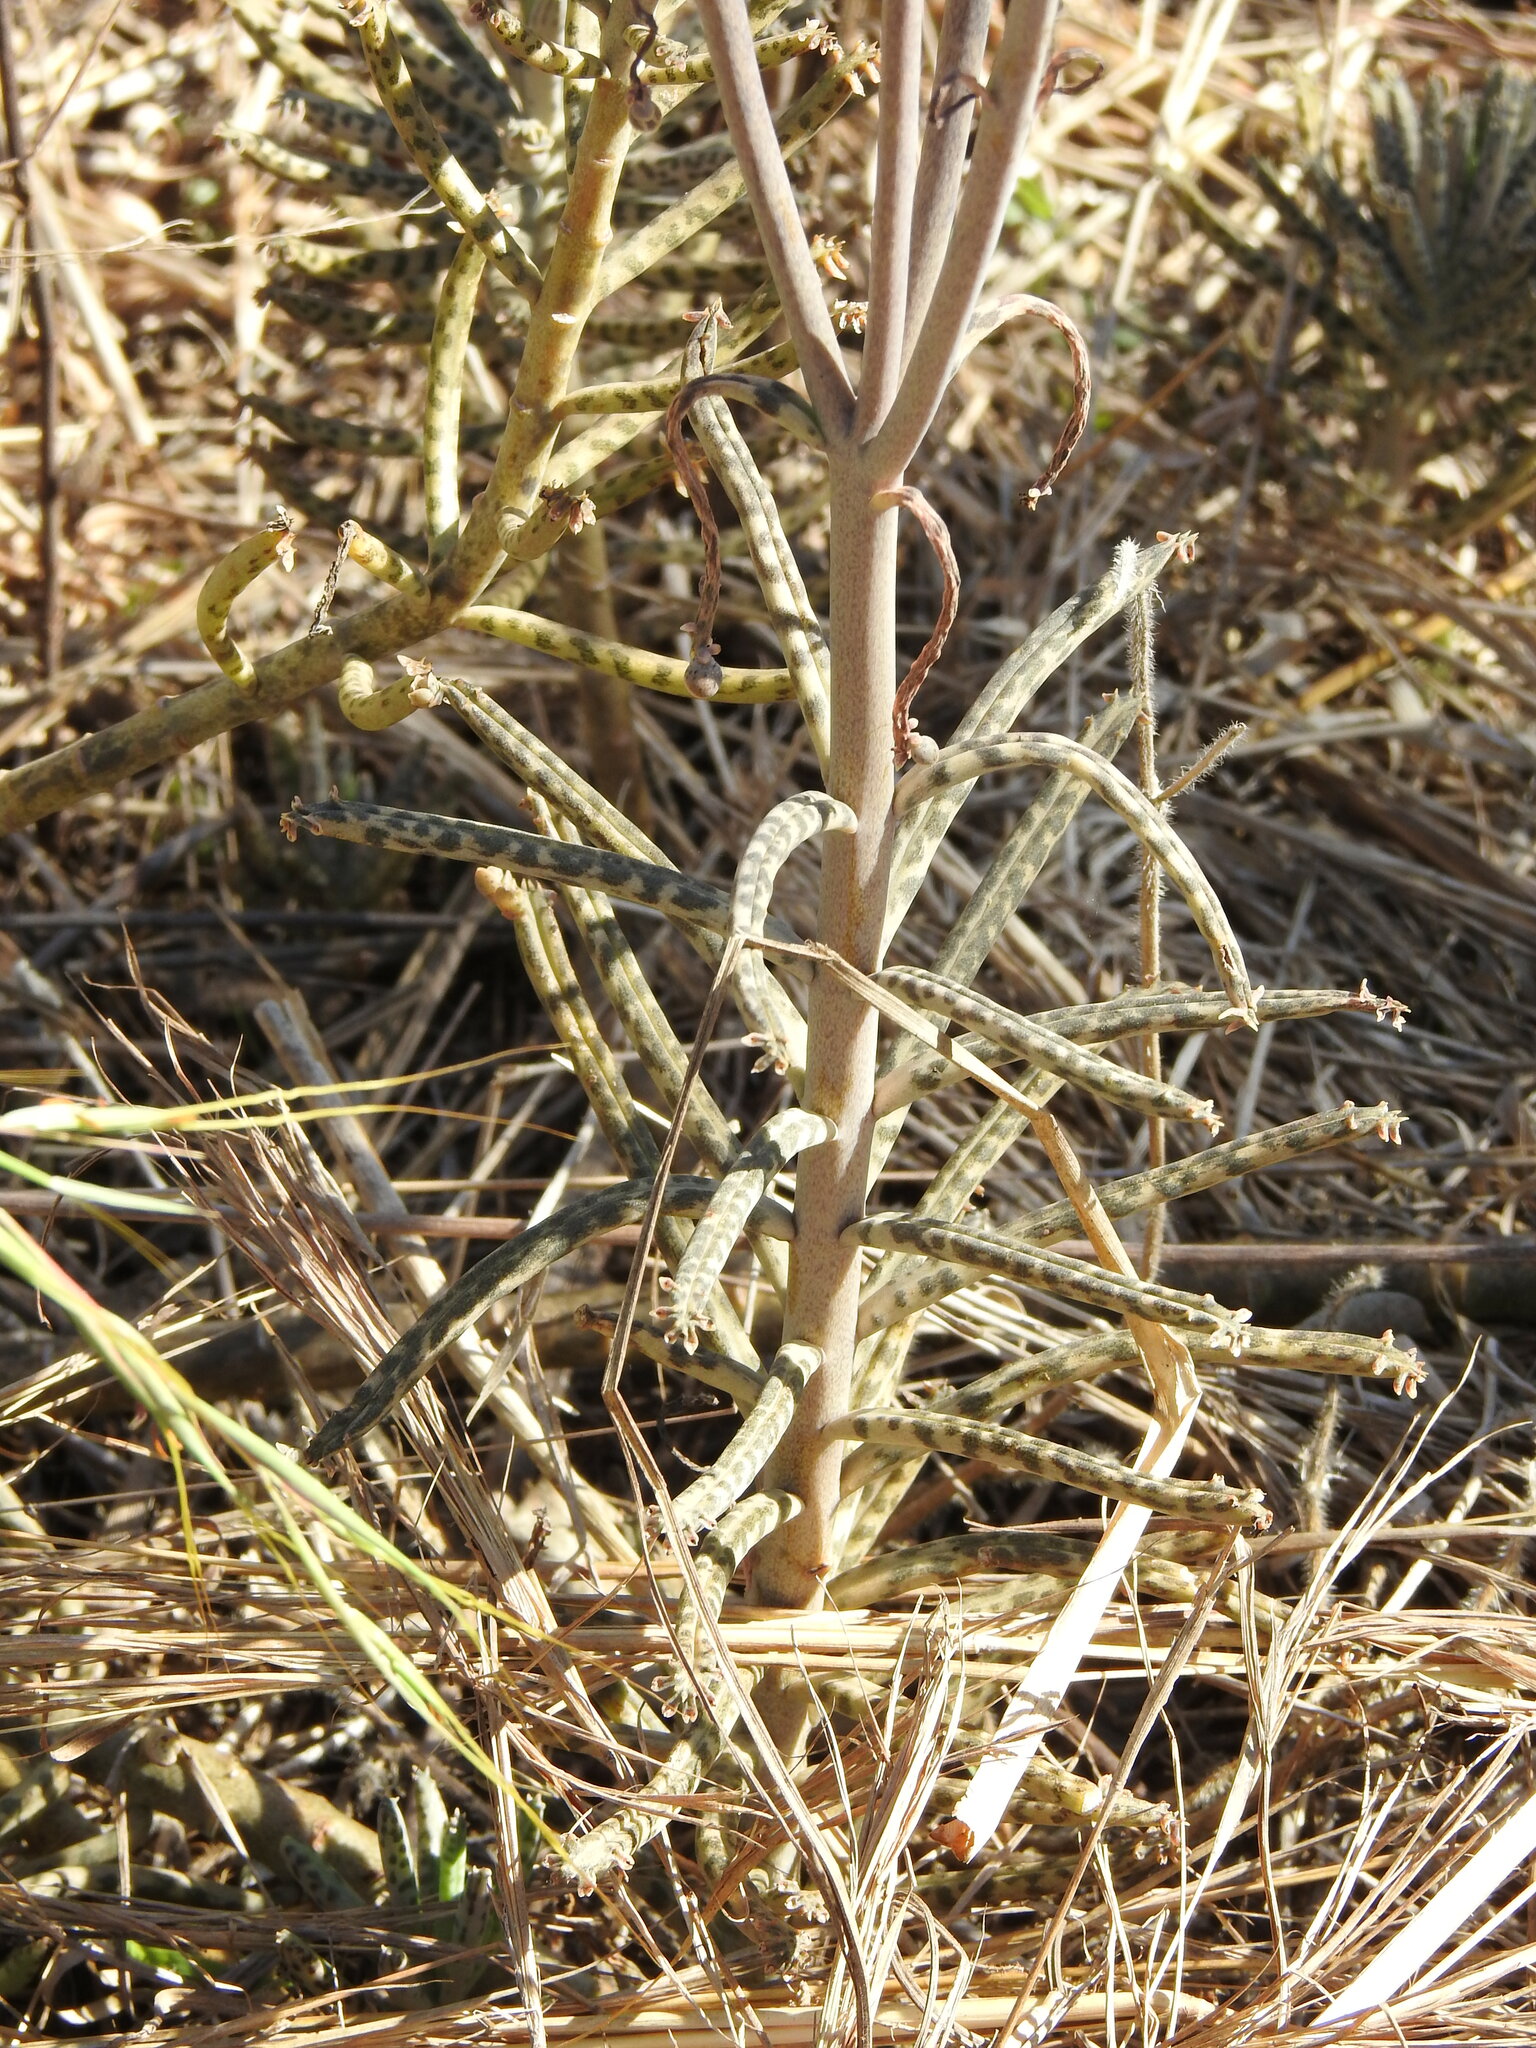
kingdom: Plantae
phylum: Tracheophyta
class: Magnoliopsida
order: Saxifragales
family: Crassulaceae
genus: Kalanchoe
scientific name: Kalanchoe delagoensis
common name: Chandelier plant
